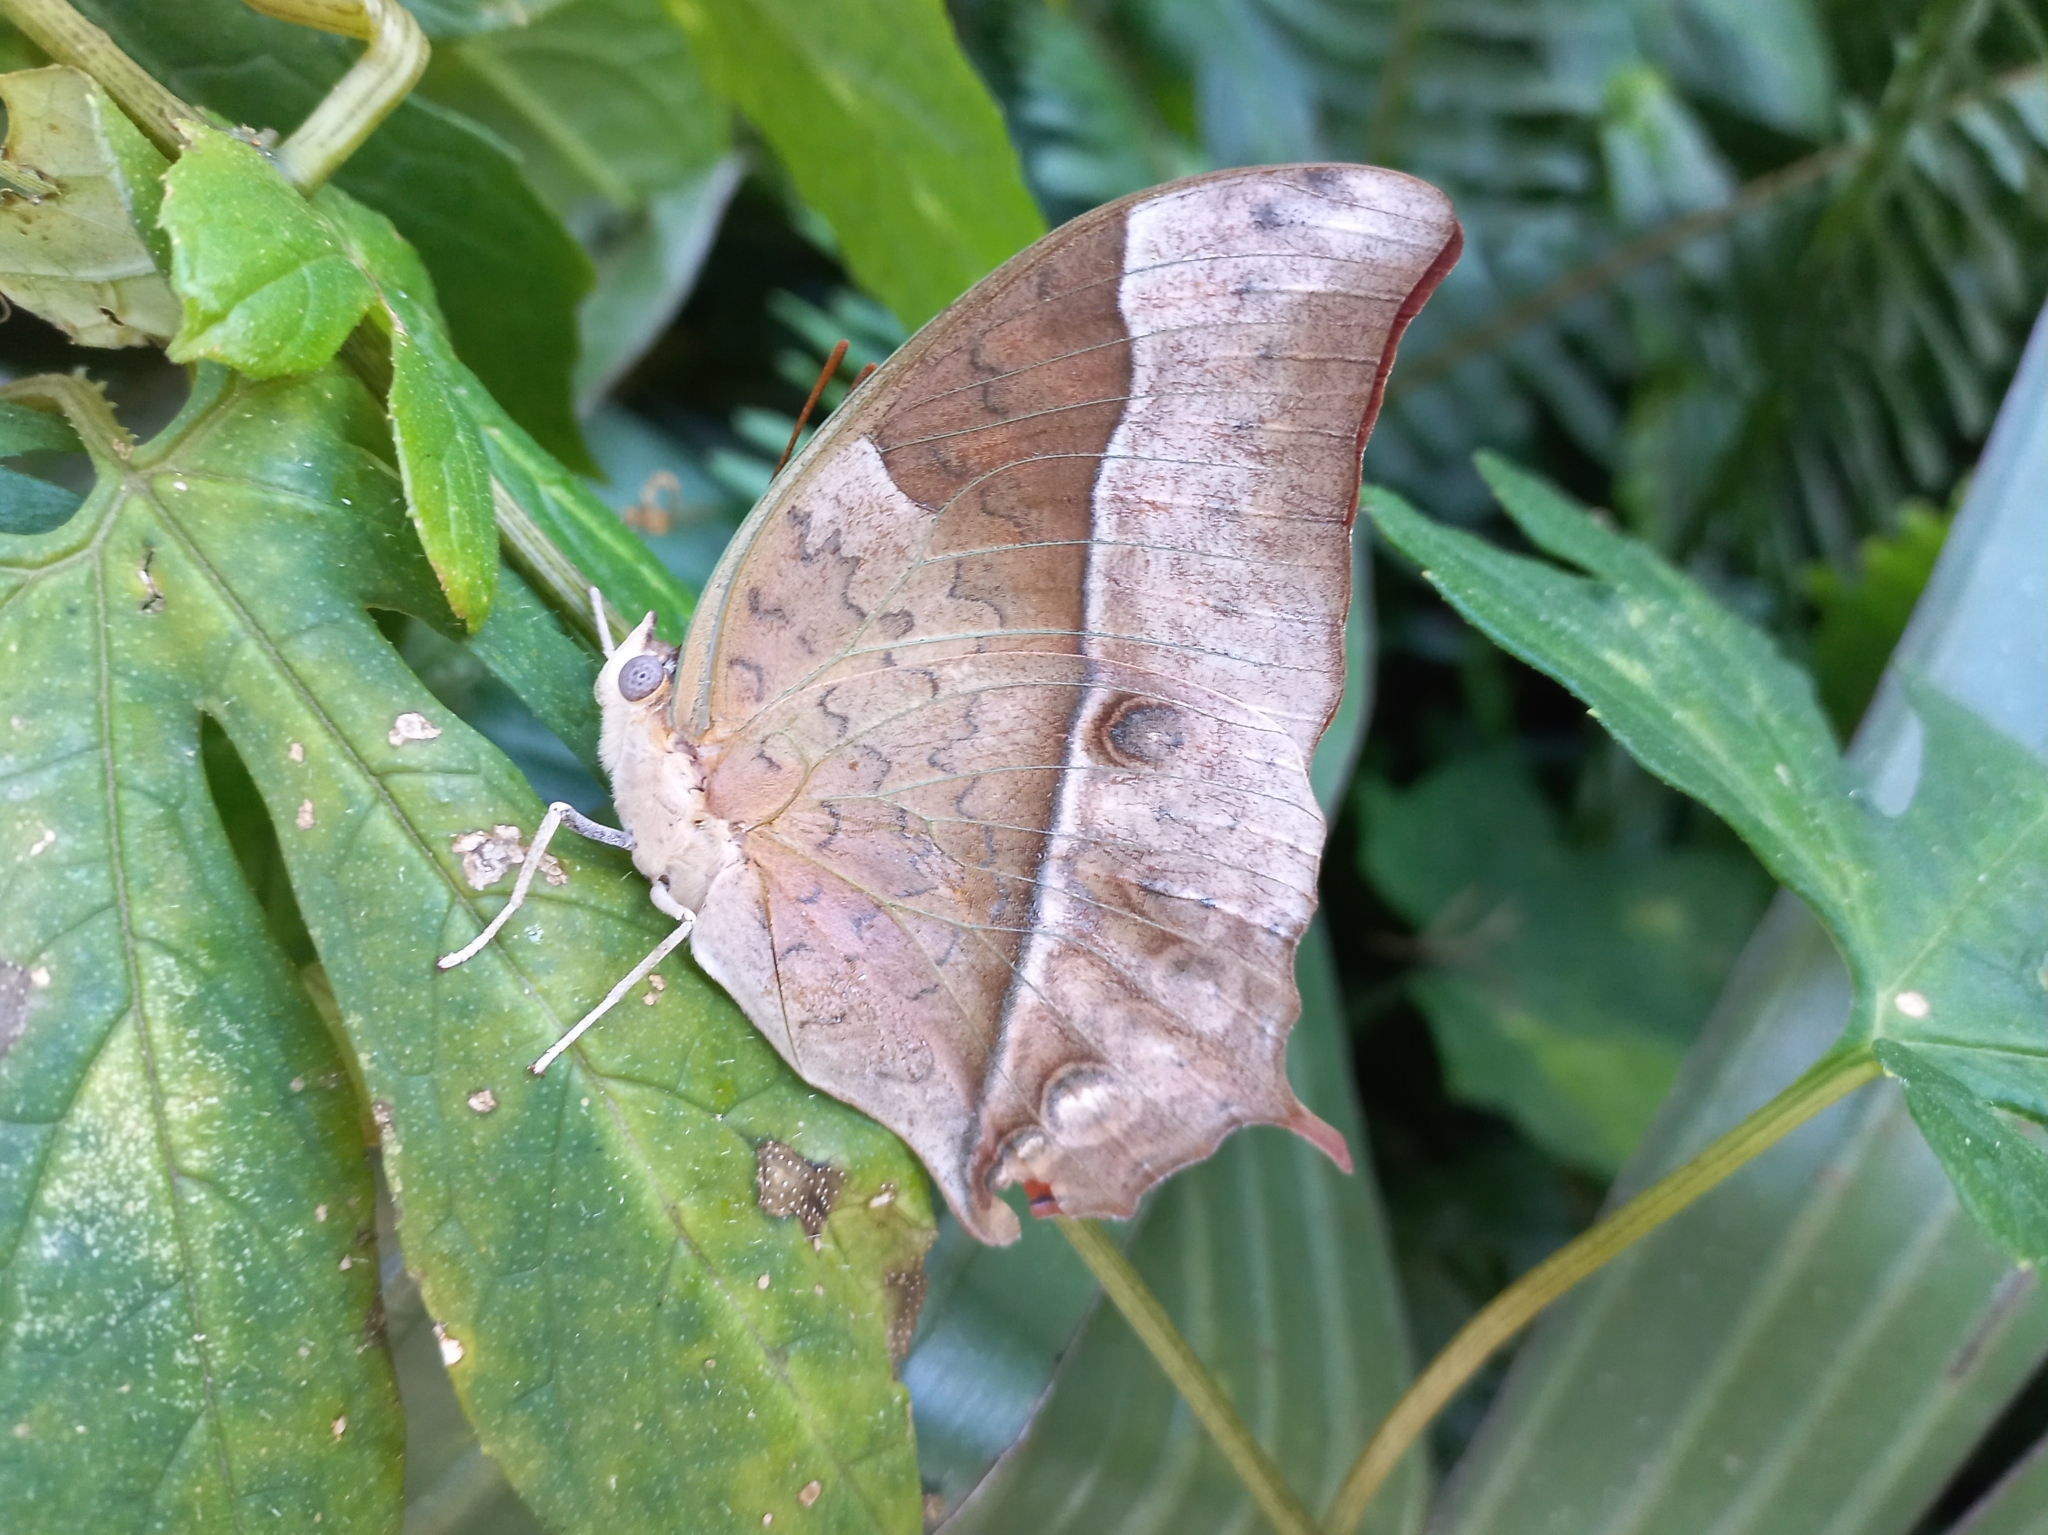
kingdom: Animalia
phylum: Arthropoda
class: Insecta
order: Lepidoptera
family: Nymphalidae
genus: Charaxes
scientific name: Charaxes varanes
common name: Common pearl charaxes
